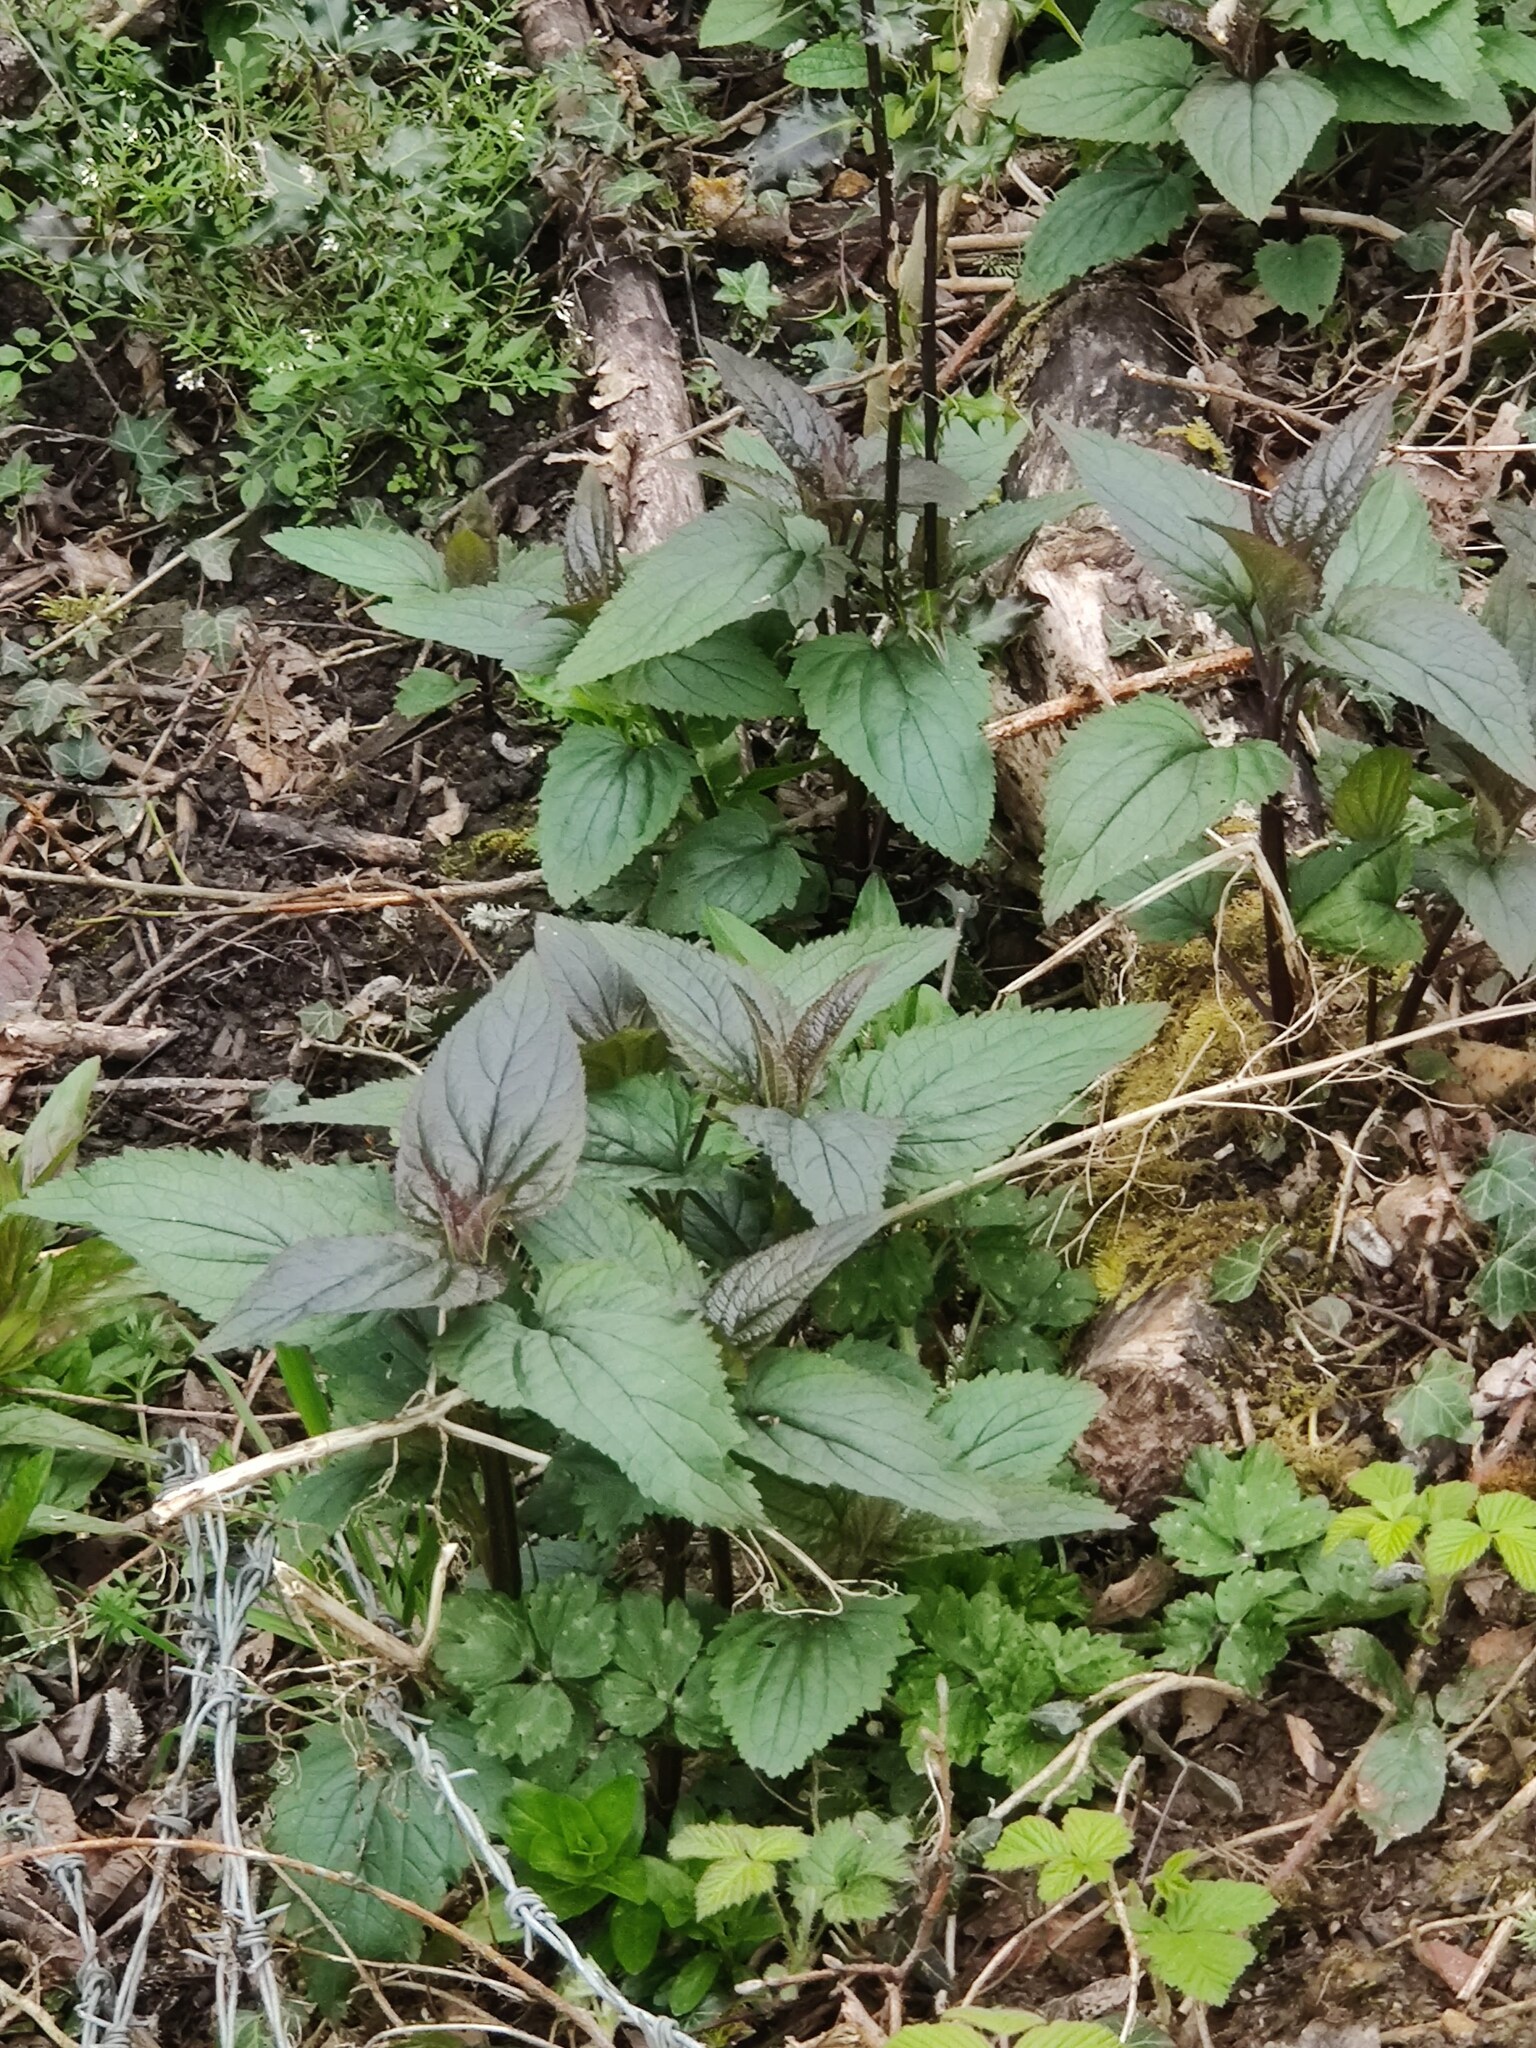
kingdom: Plantae
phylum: Tracheophyta
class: Magnoliopsida
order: Lamiales
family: Scrophulariaceae
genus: Scrophularia
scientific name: Scrophularia nodosa
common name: Common figwort
